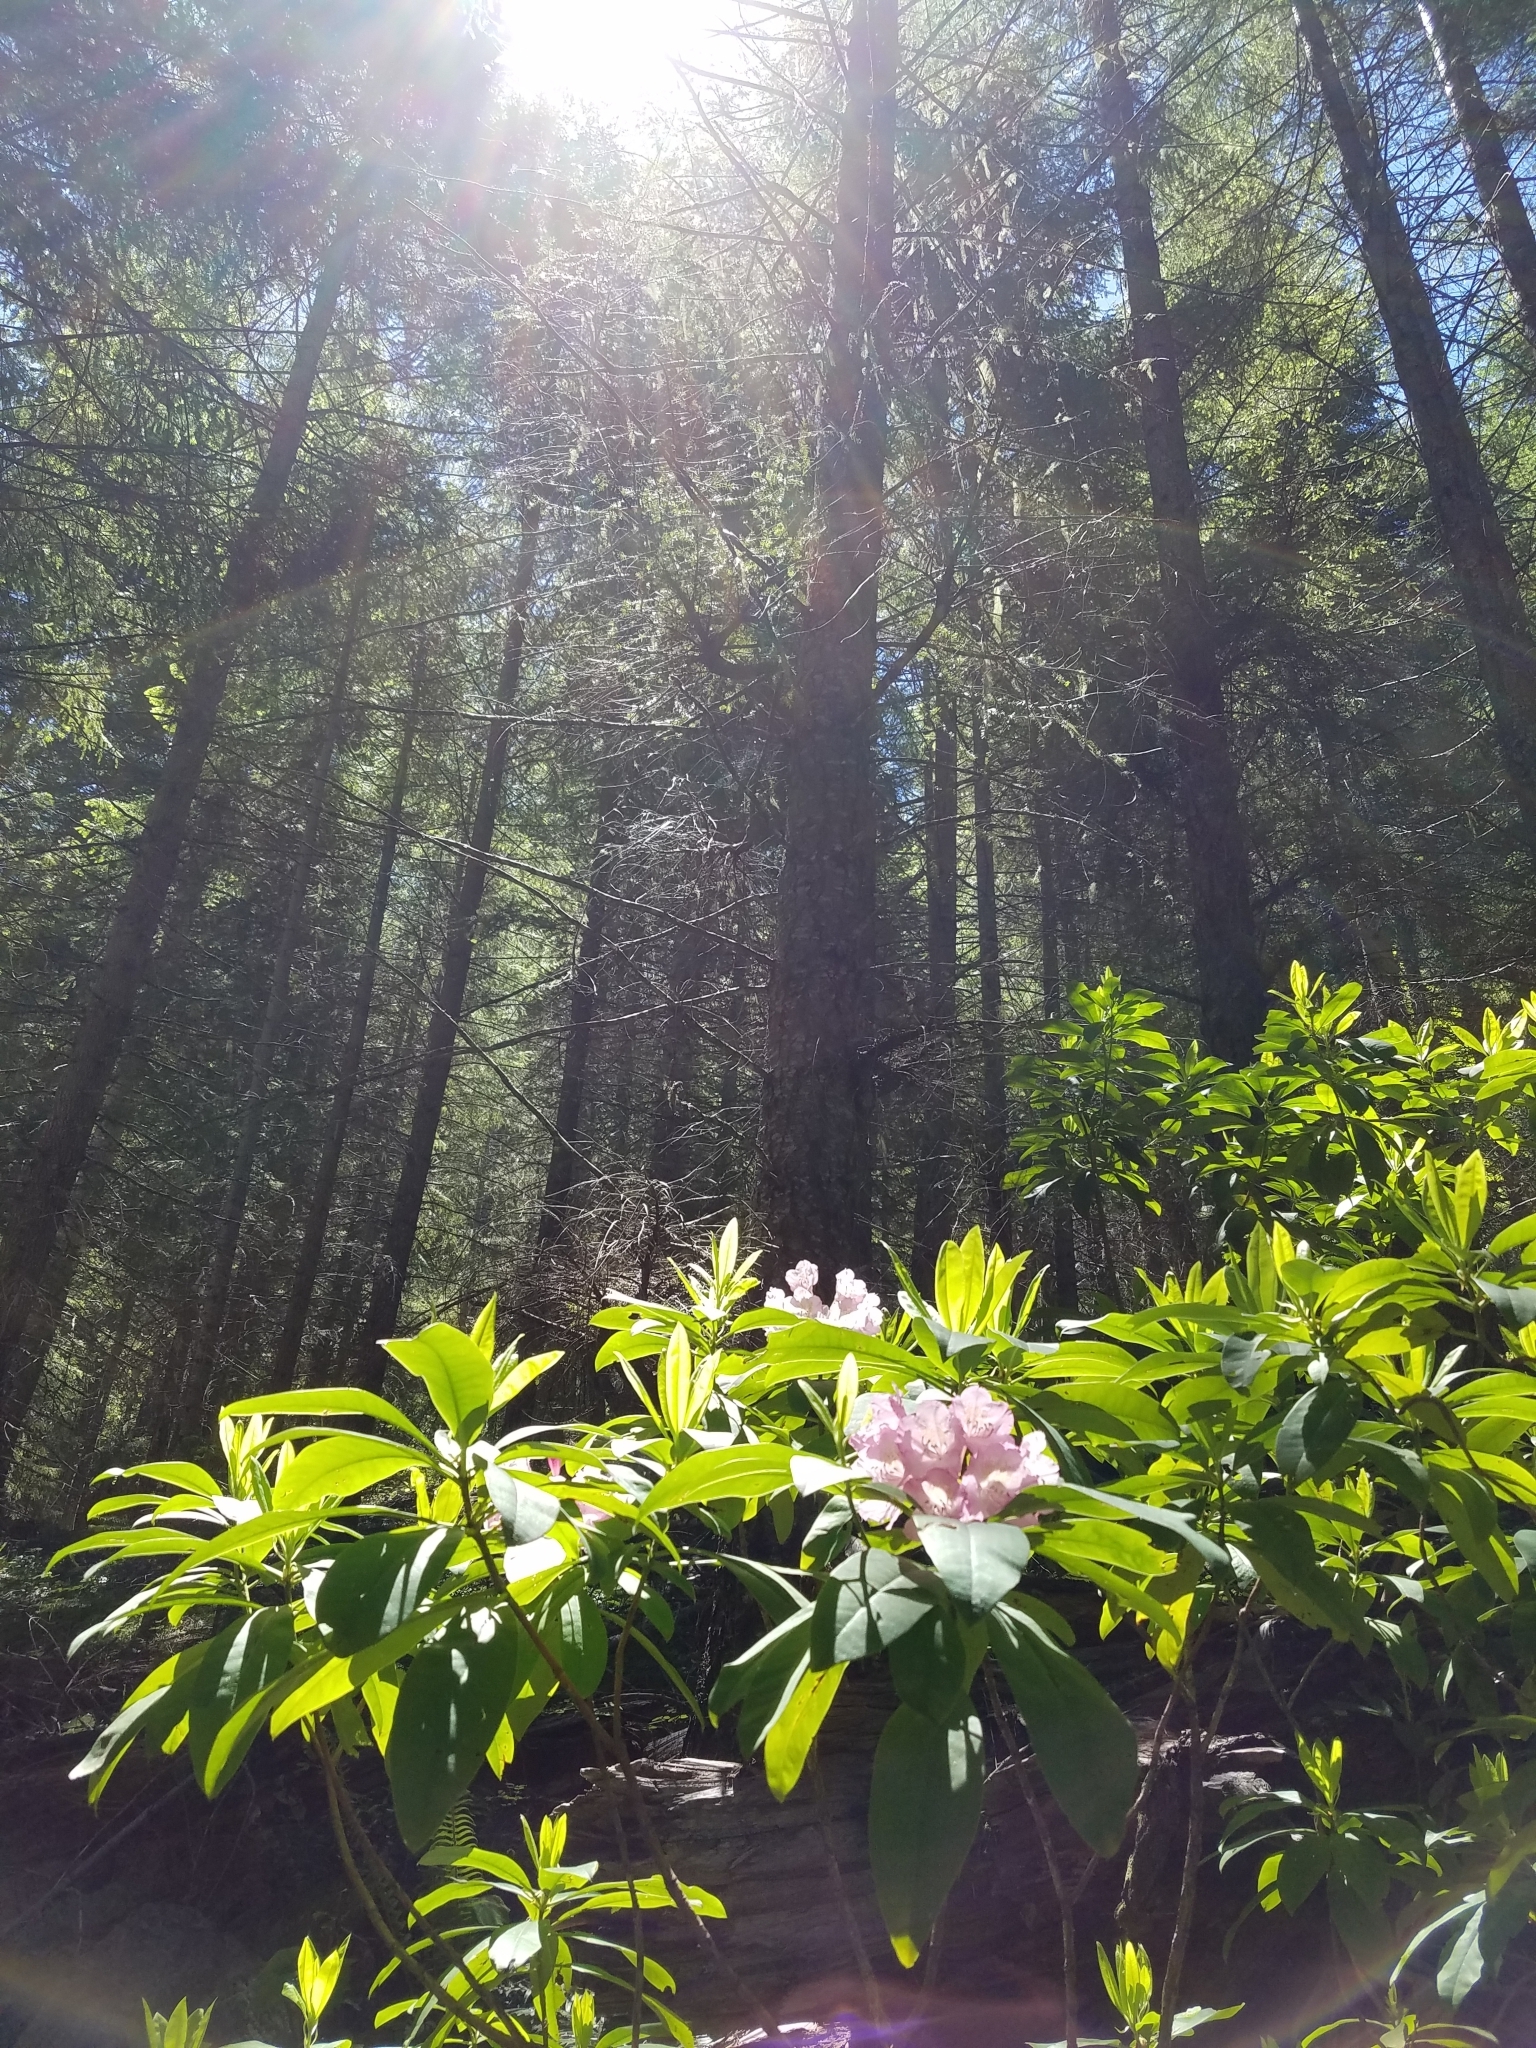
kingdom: Plantae
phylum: Tracheophyta
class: Magnoliopsida
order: Ericales
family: Ericaceae
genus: Rhododendron
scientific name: Rhododendron macrophyllum
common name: California rose bay
